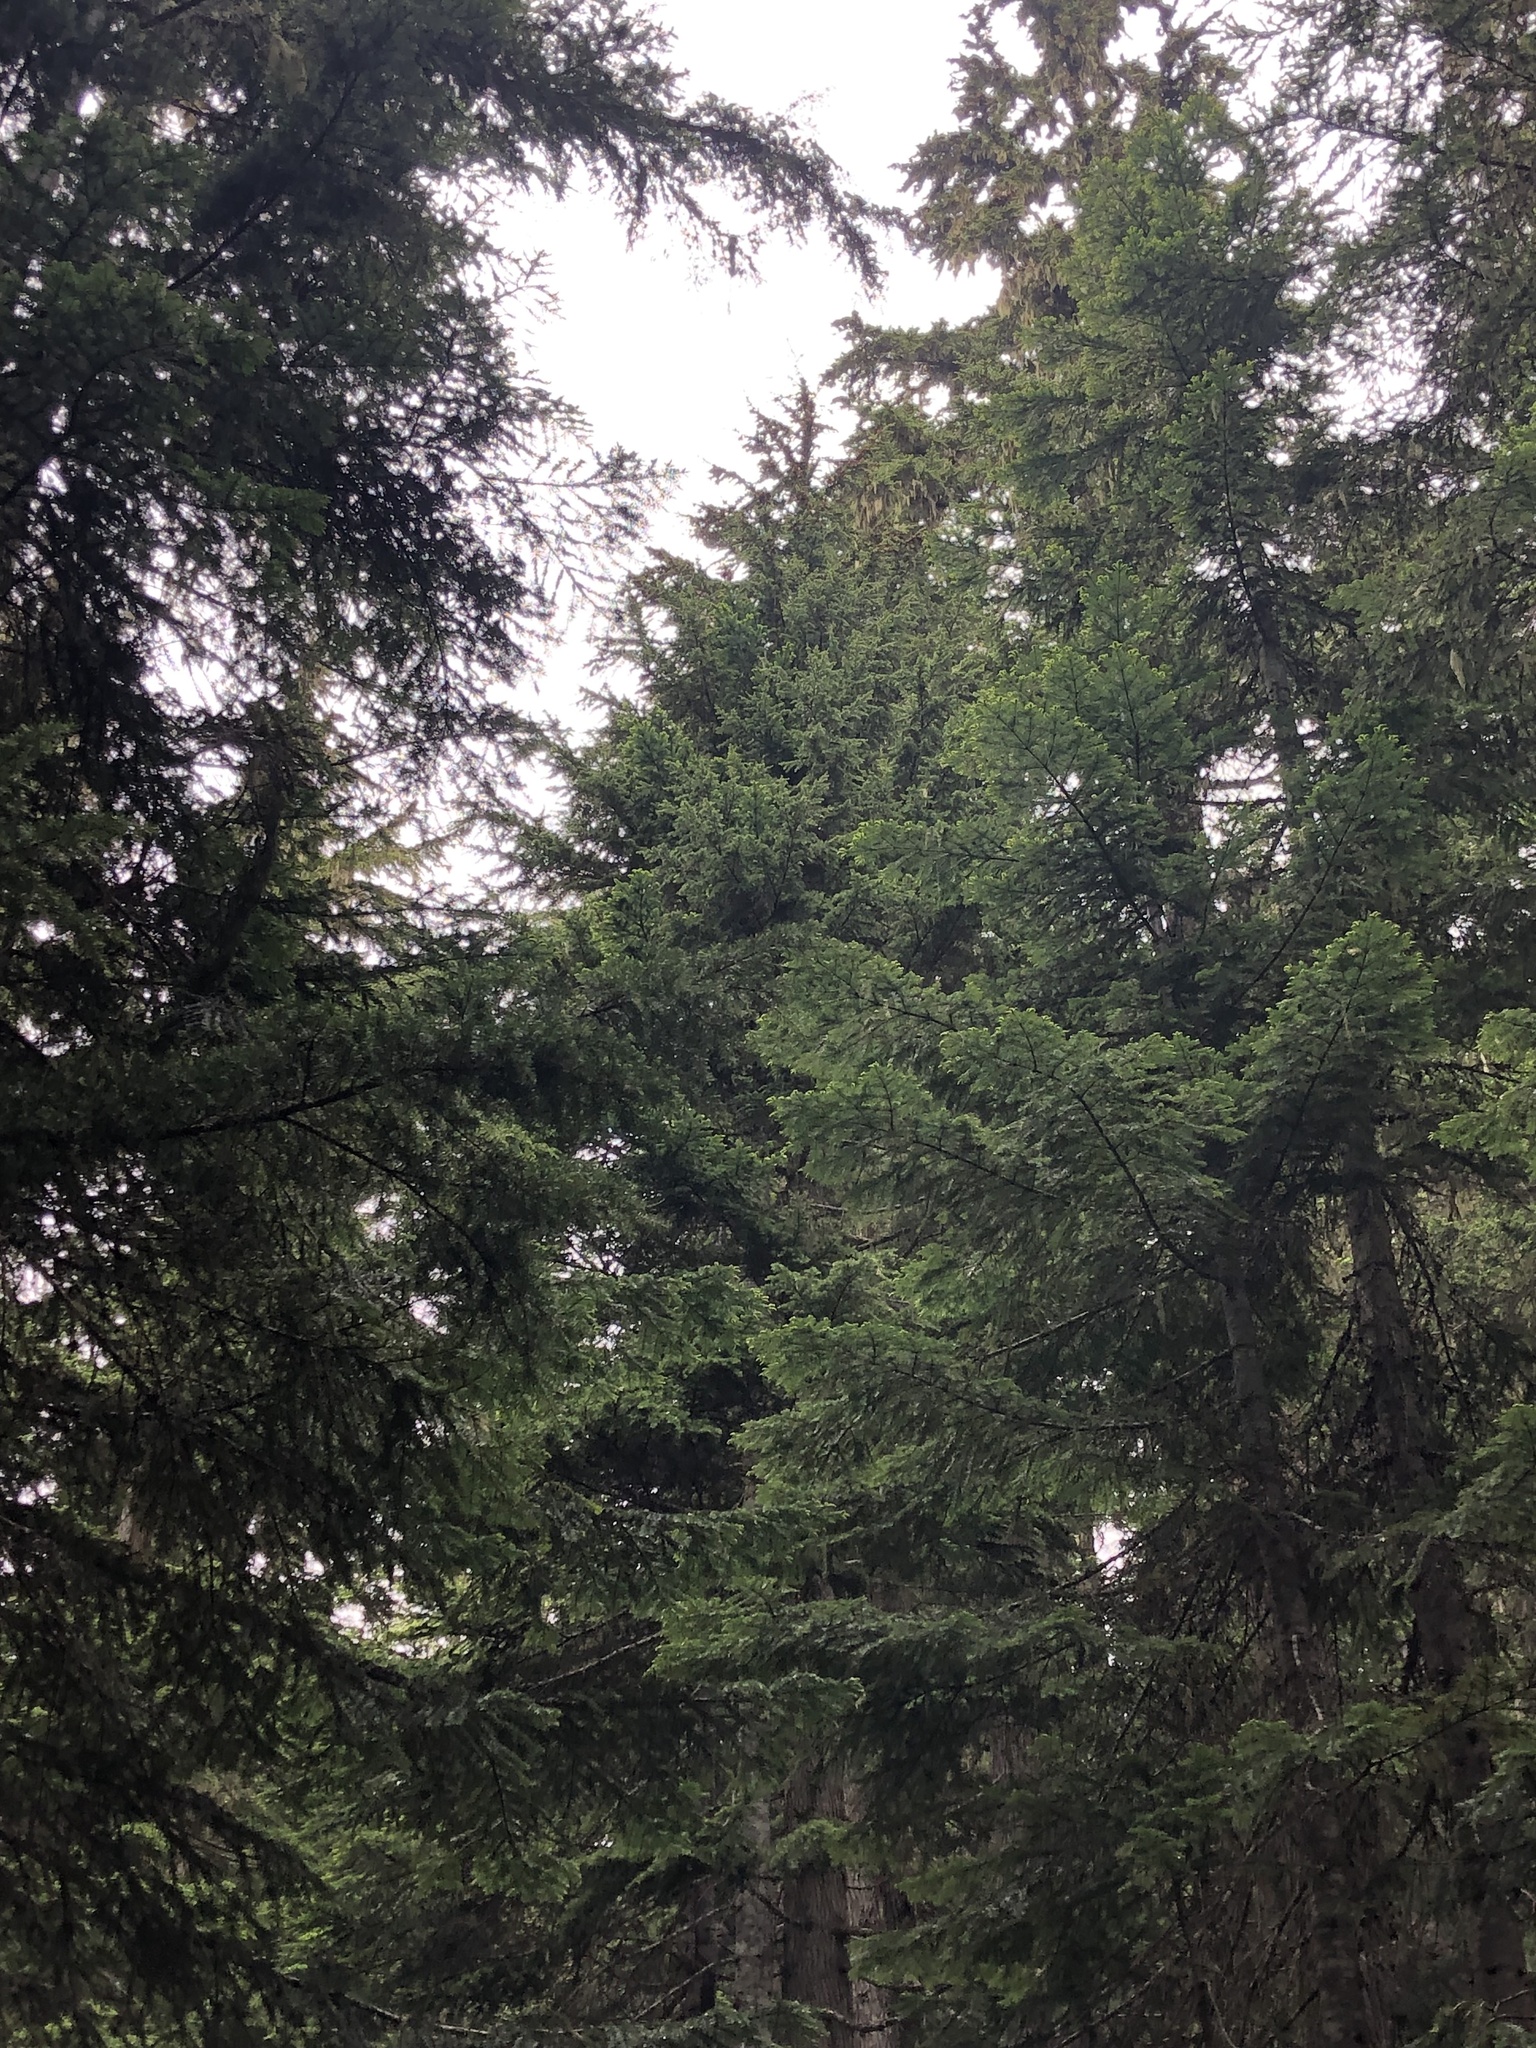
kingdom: Plantae
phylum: Tracheophyta
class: Pinopsida
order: Pinales
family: Pinaceae
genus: Tsuga
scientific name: Tsuga mertensiana
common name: Mountain hemlock
